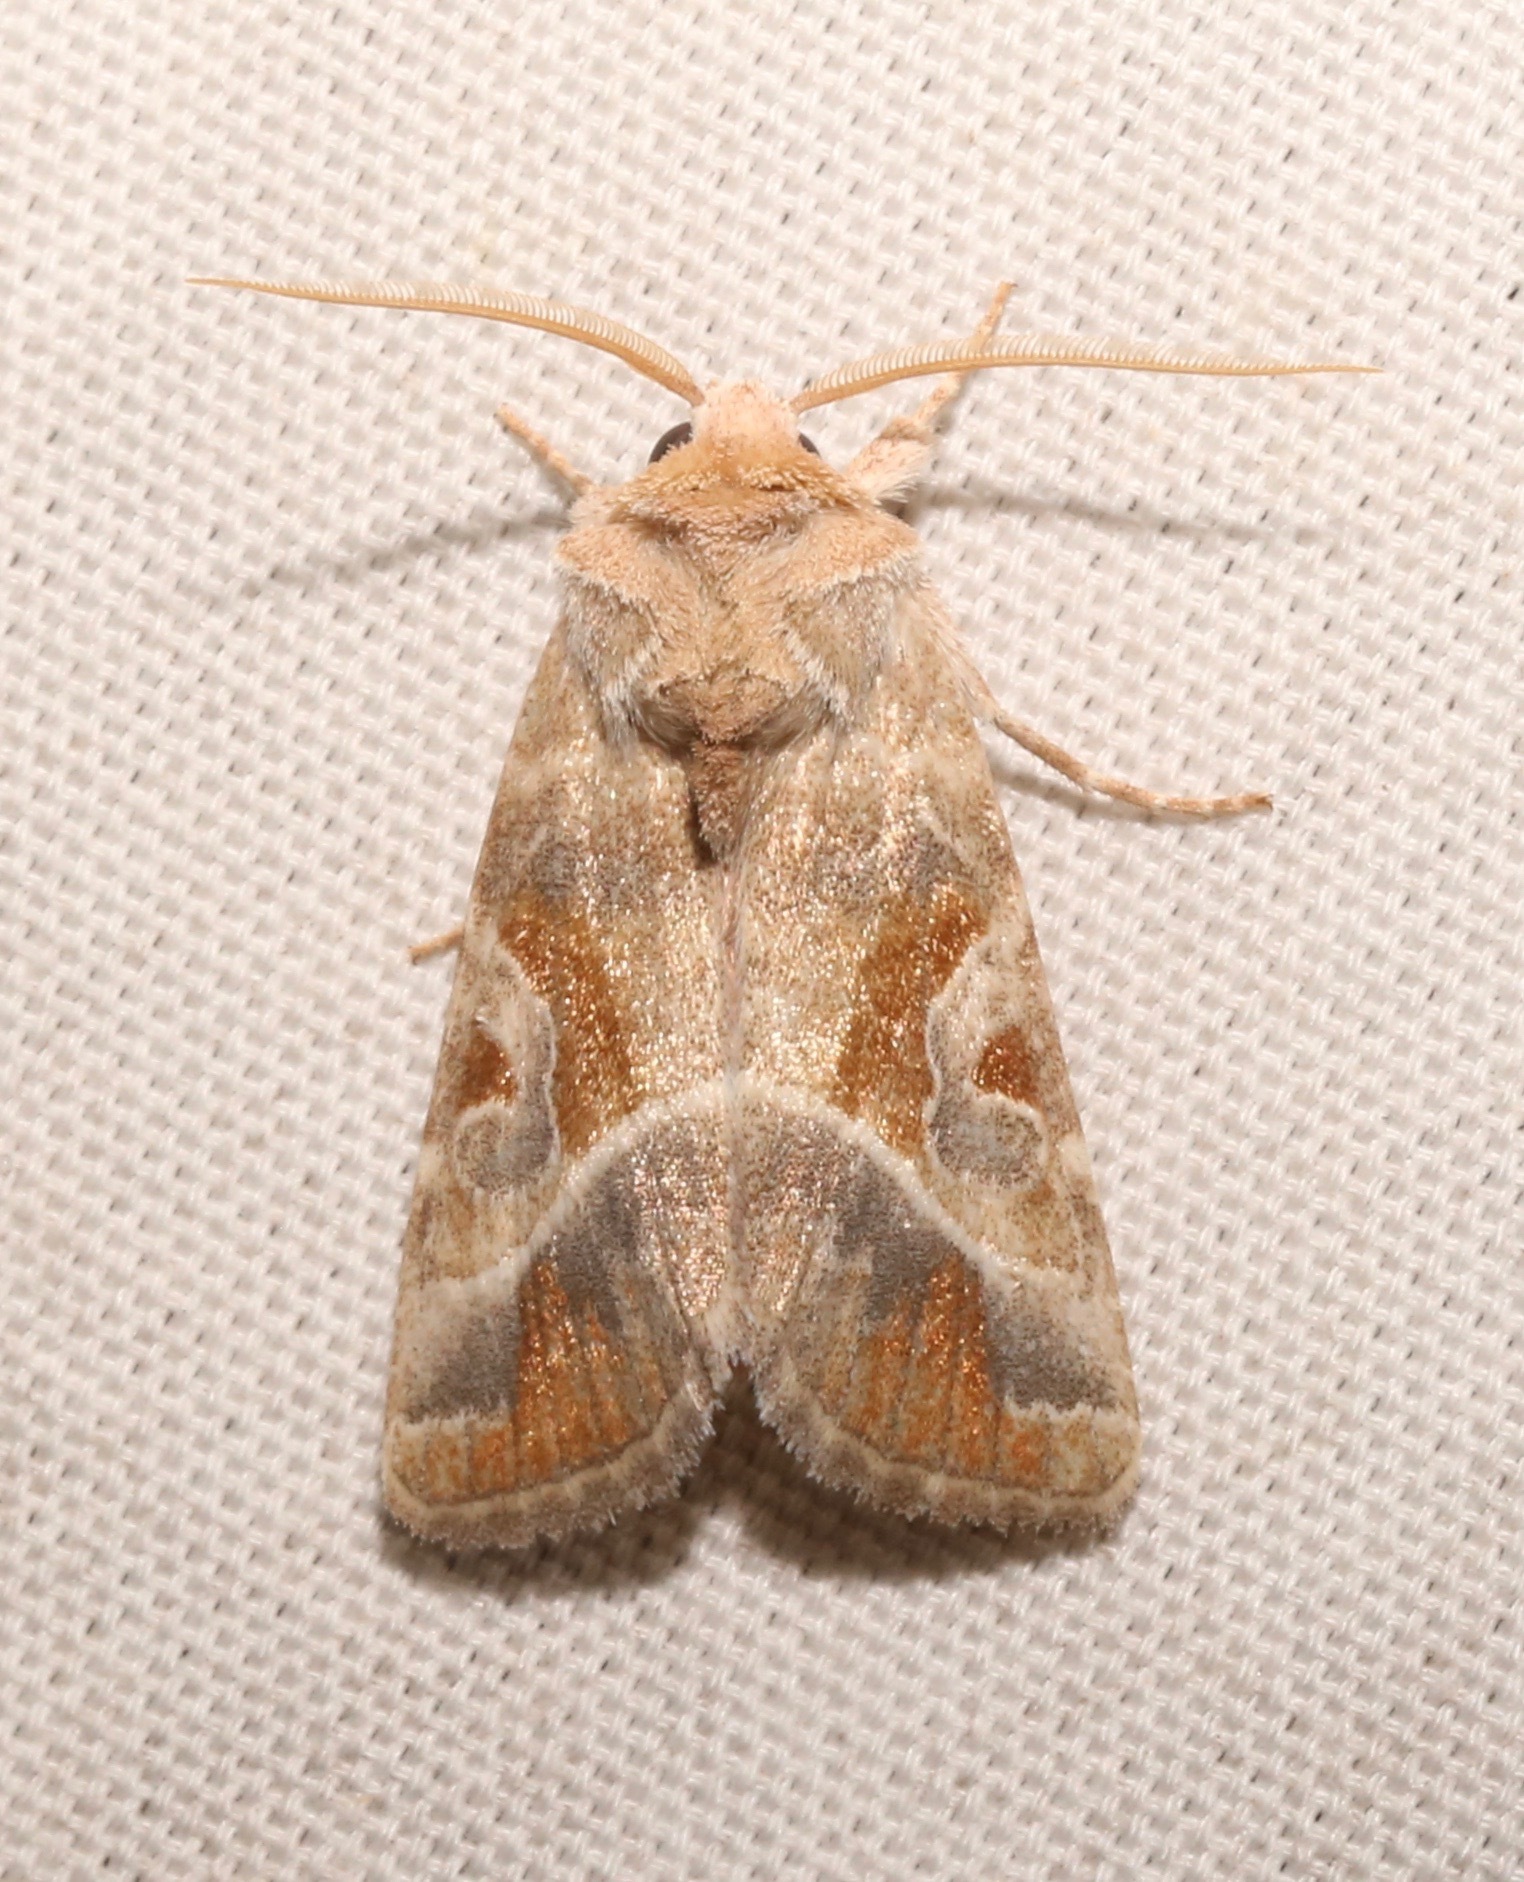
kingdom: Animalia
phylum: Arthropoda
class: Insecta
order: Lepidoptera
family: Noctuidae
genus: Hexorthodes
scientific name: Hexorthodes accurata
